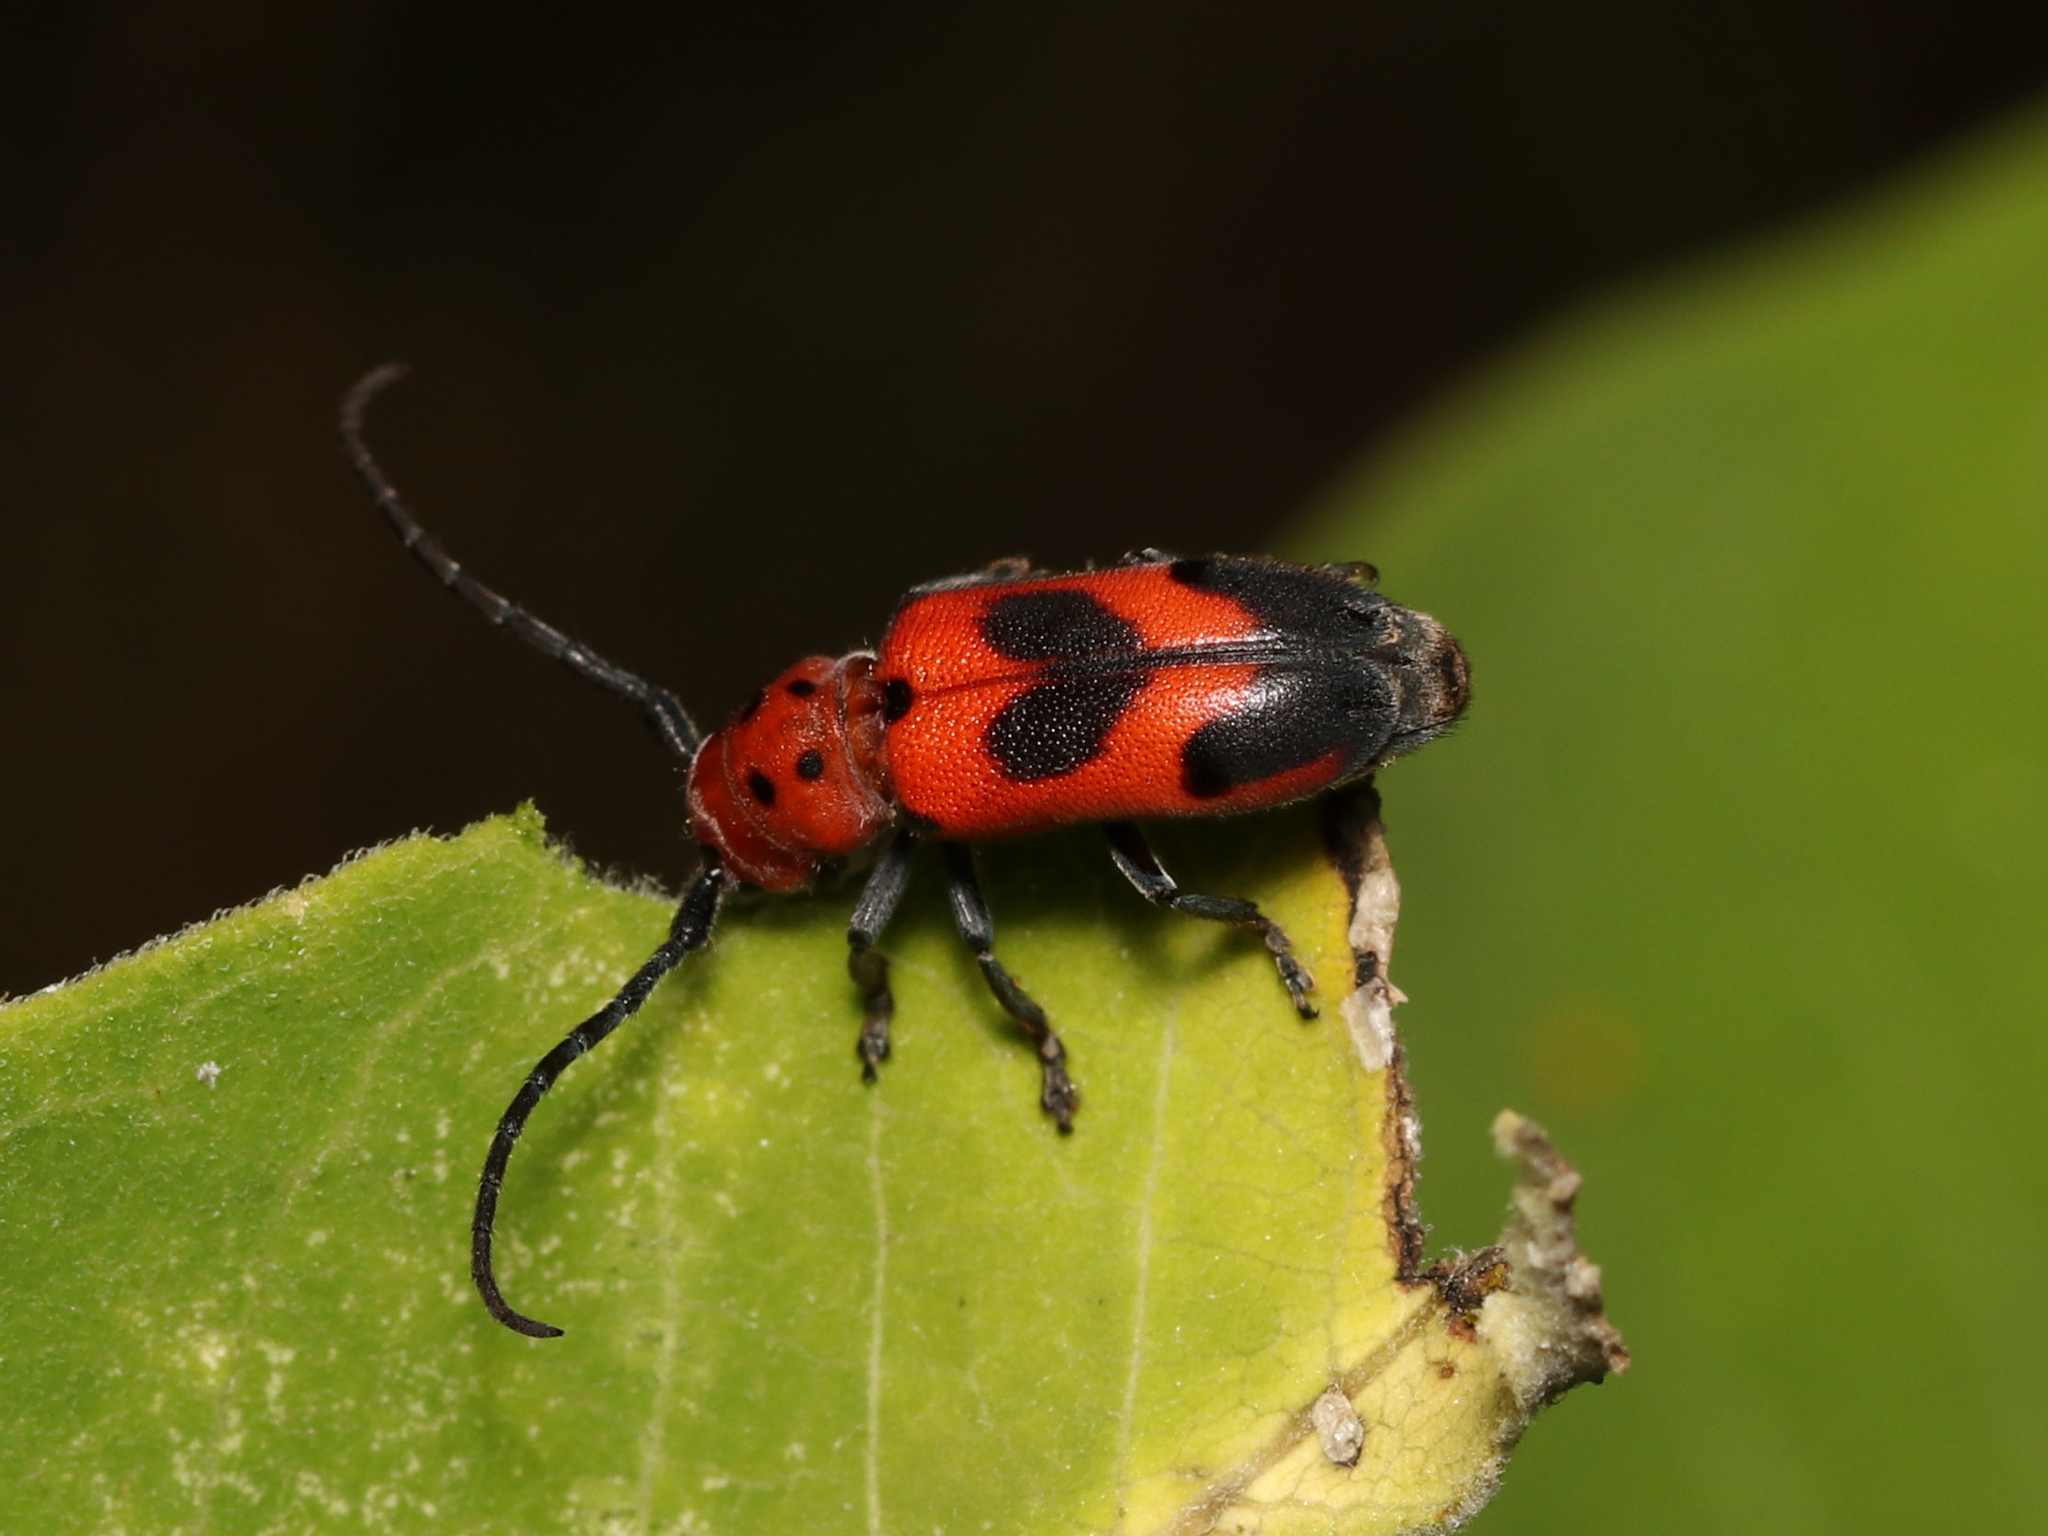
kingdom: Animalia
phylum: Arthropoda
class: Insecta
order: Coleoptera
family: Cerambycidae
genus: Tetraopes
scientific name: Tetraopes melanurus
